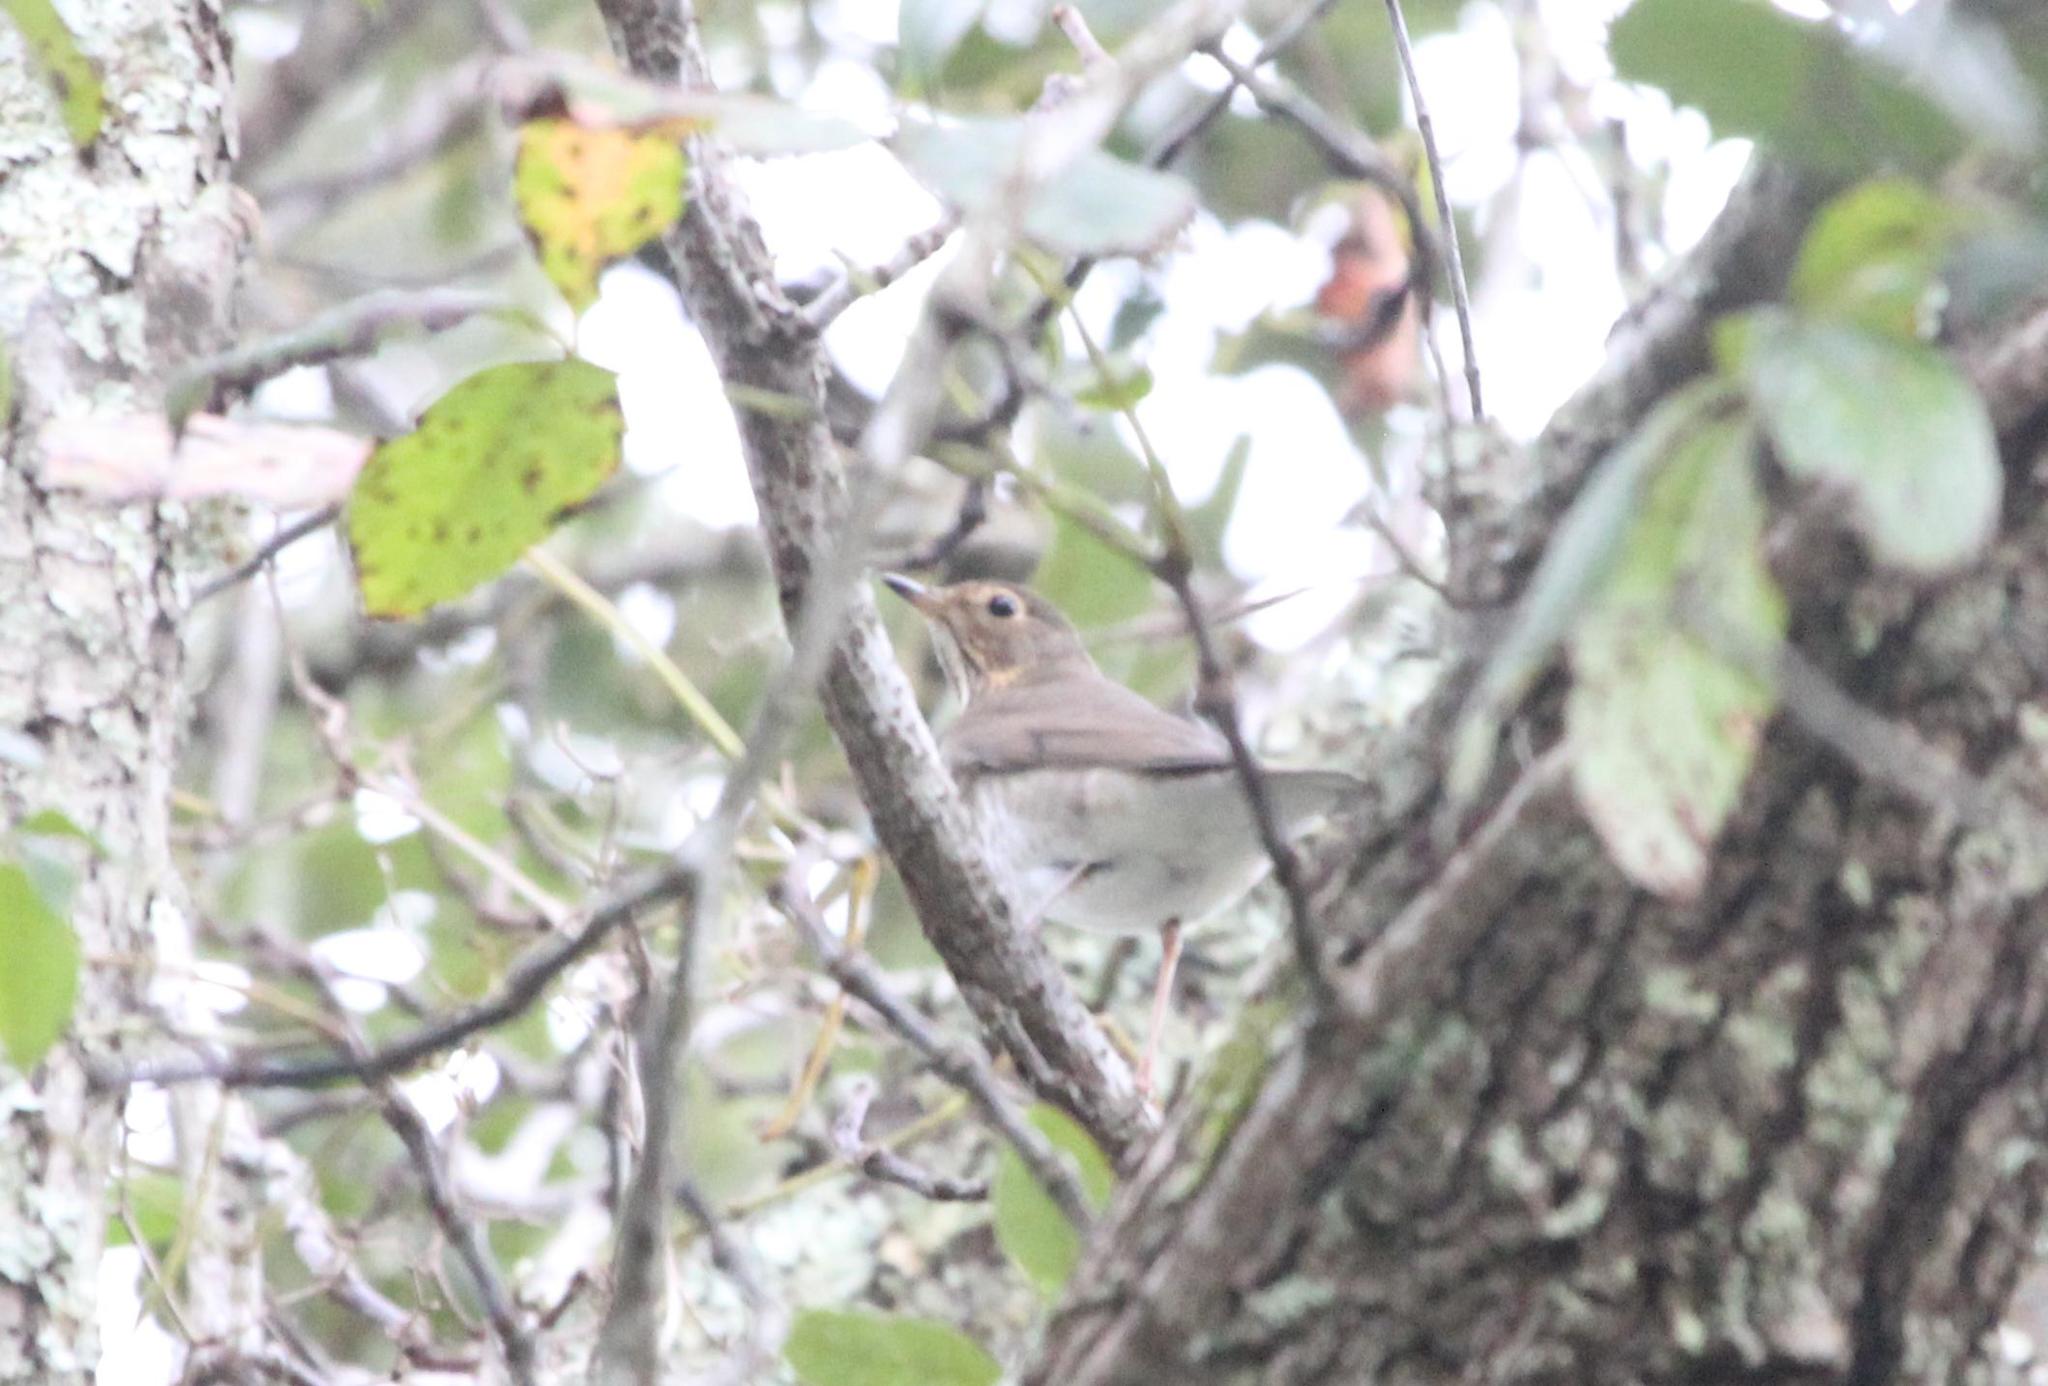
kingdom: Animalia
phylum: Chordata
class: Aves
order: Passeriformes
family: Turdidae
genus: Catharus
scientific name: Catharus ustulatus
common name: Swainson's thrush
